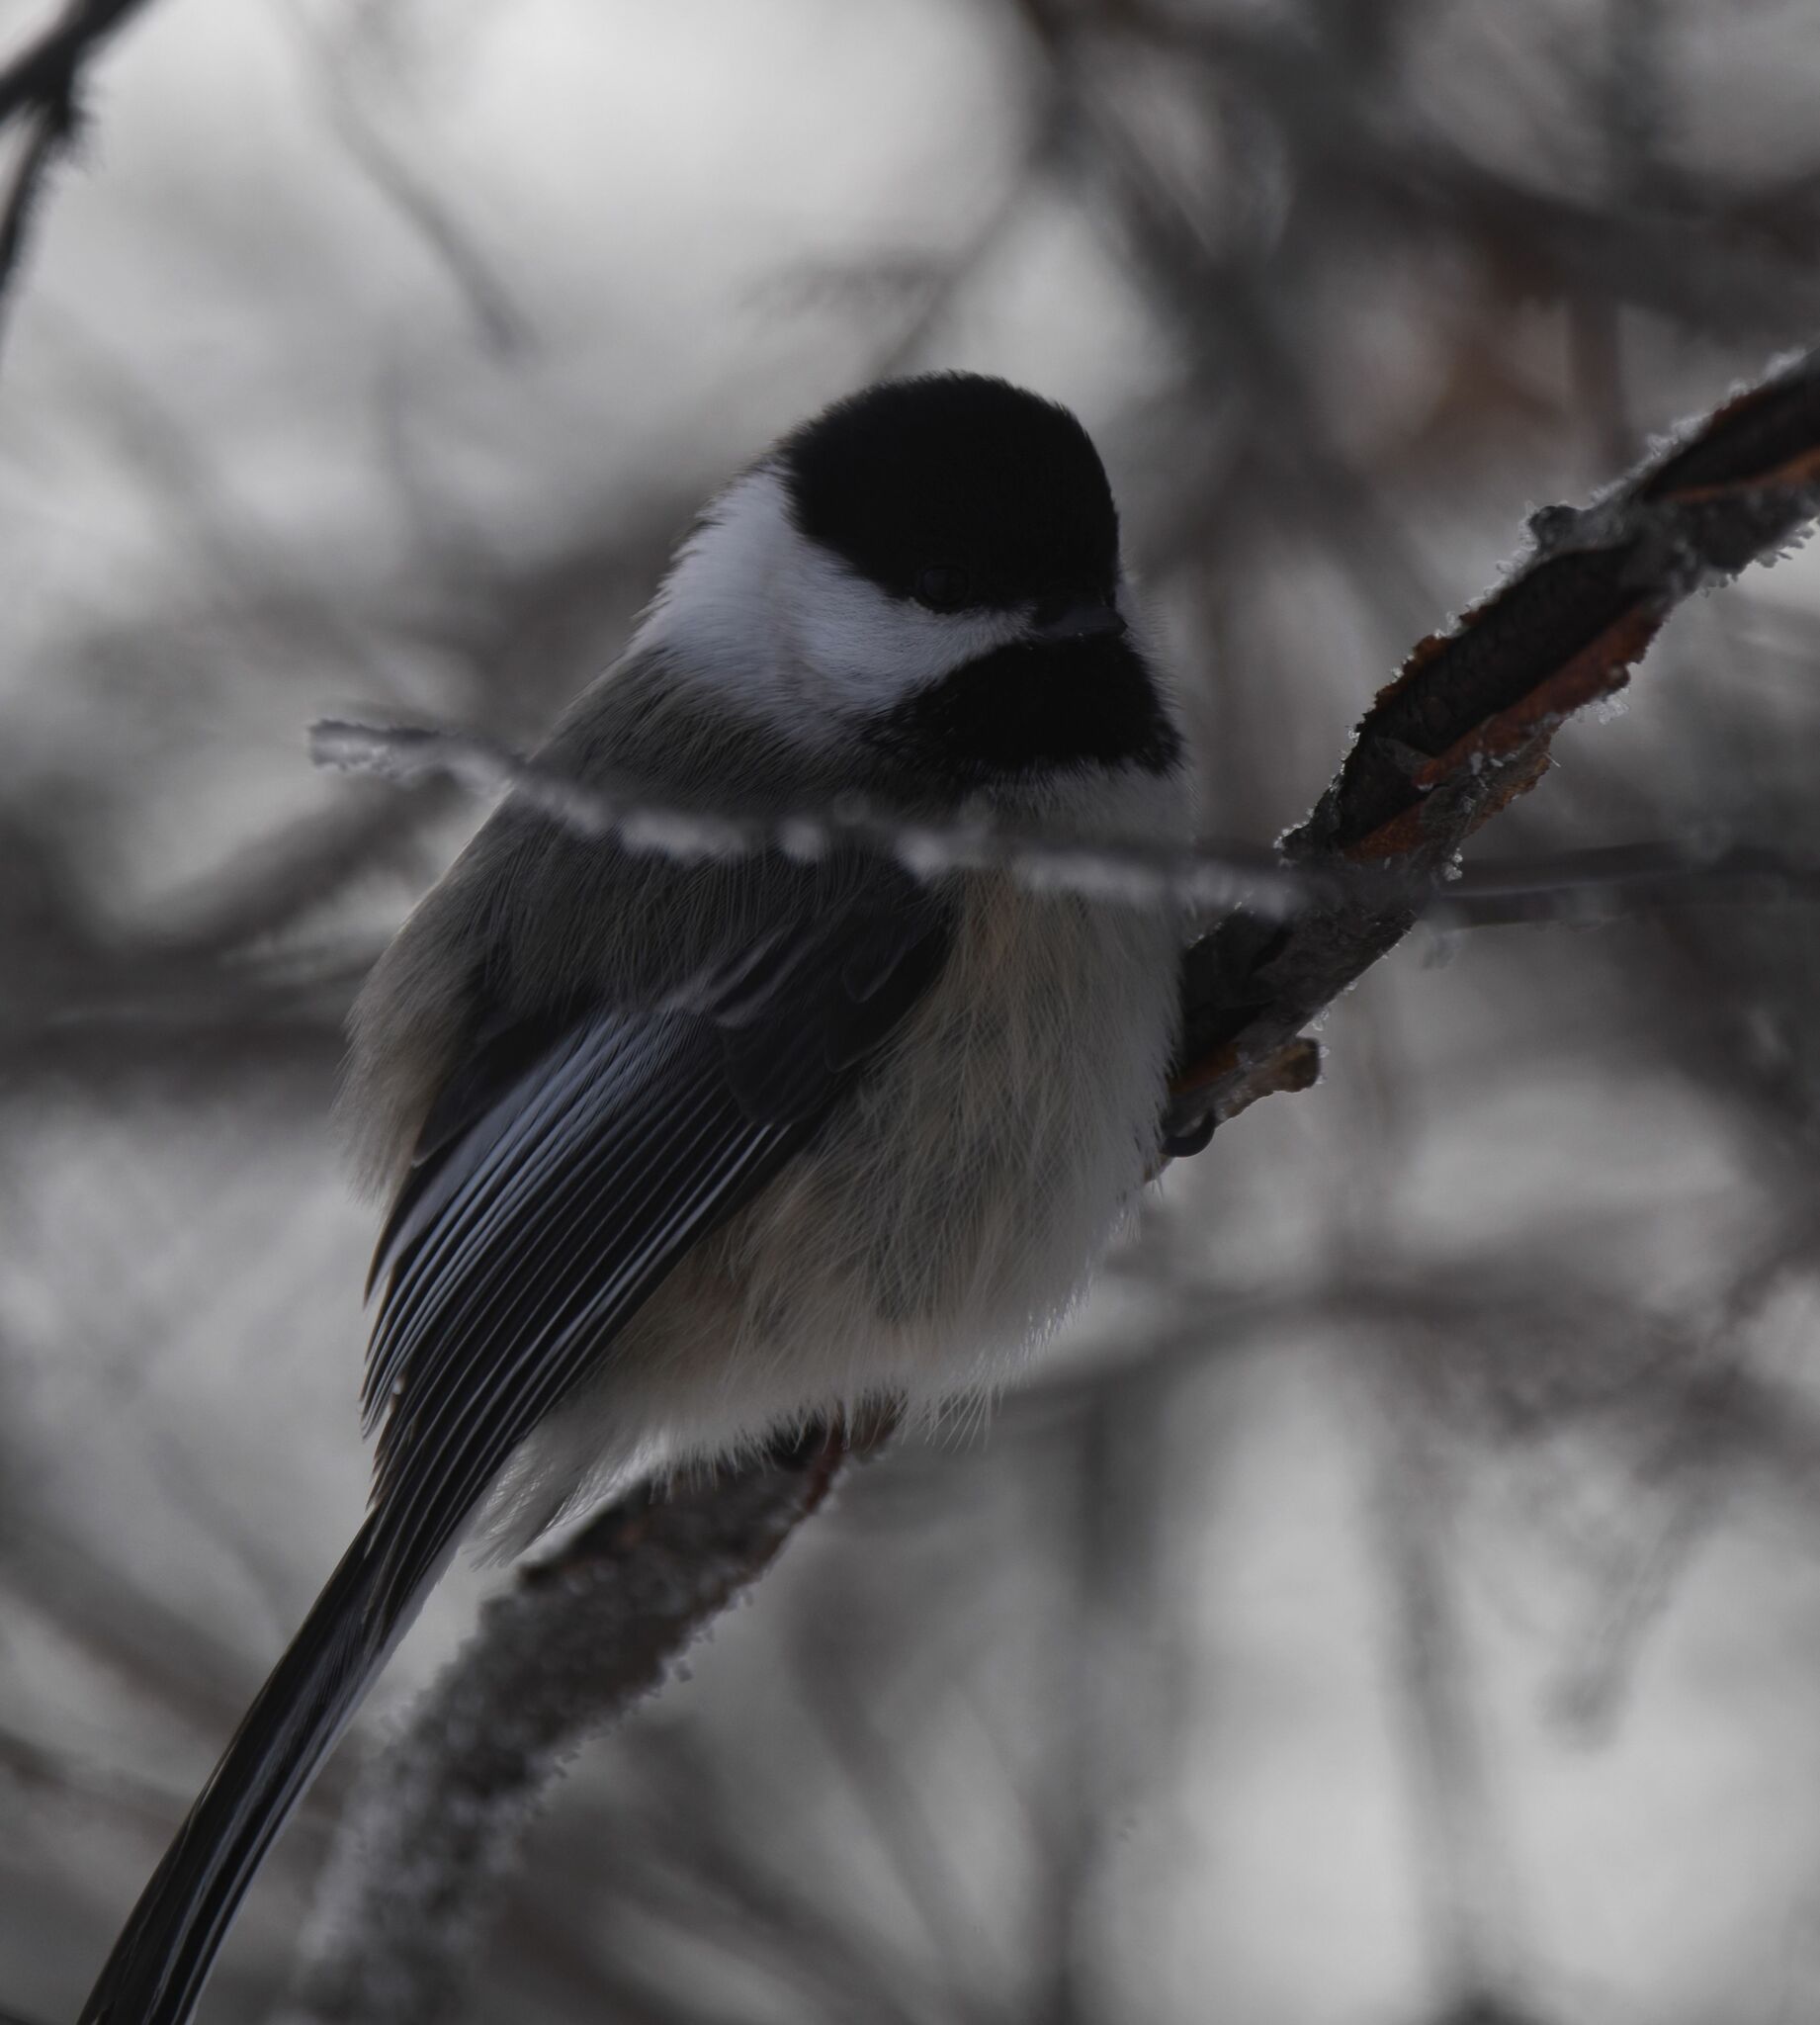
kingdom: Animalia
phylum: Chordata
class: Aves
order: Passeriformes
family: Paridae
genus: Poecile
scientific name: Poecile atricapillus
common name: Black-capped chickadee
